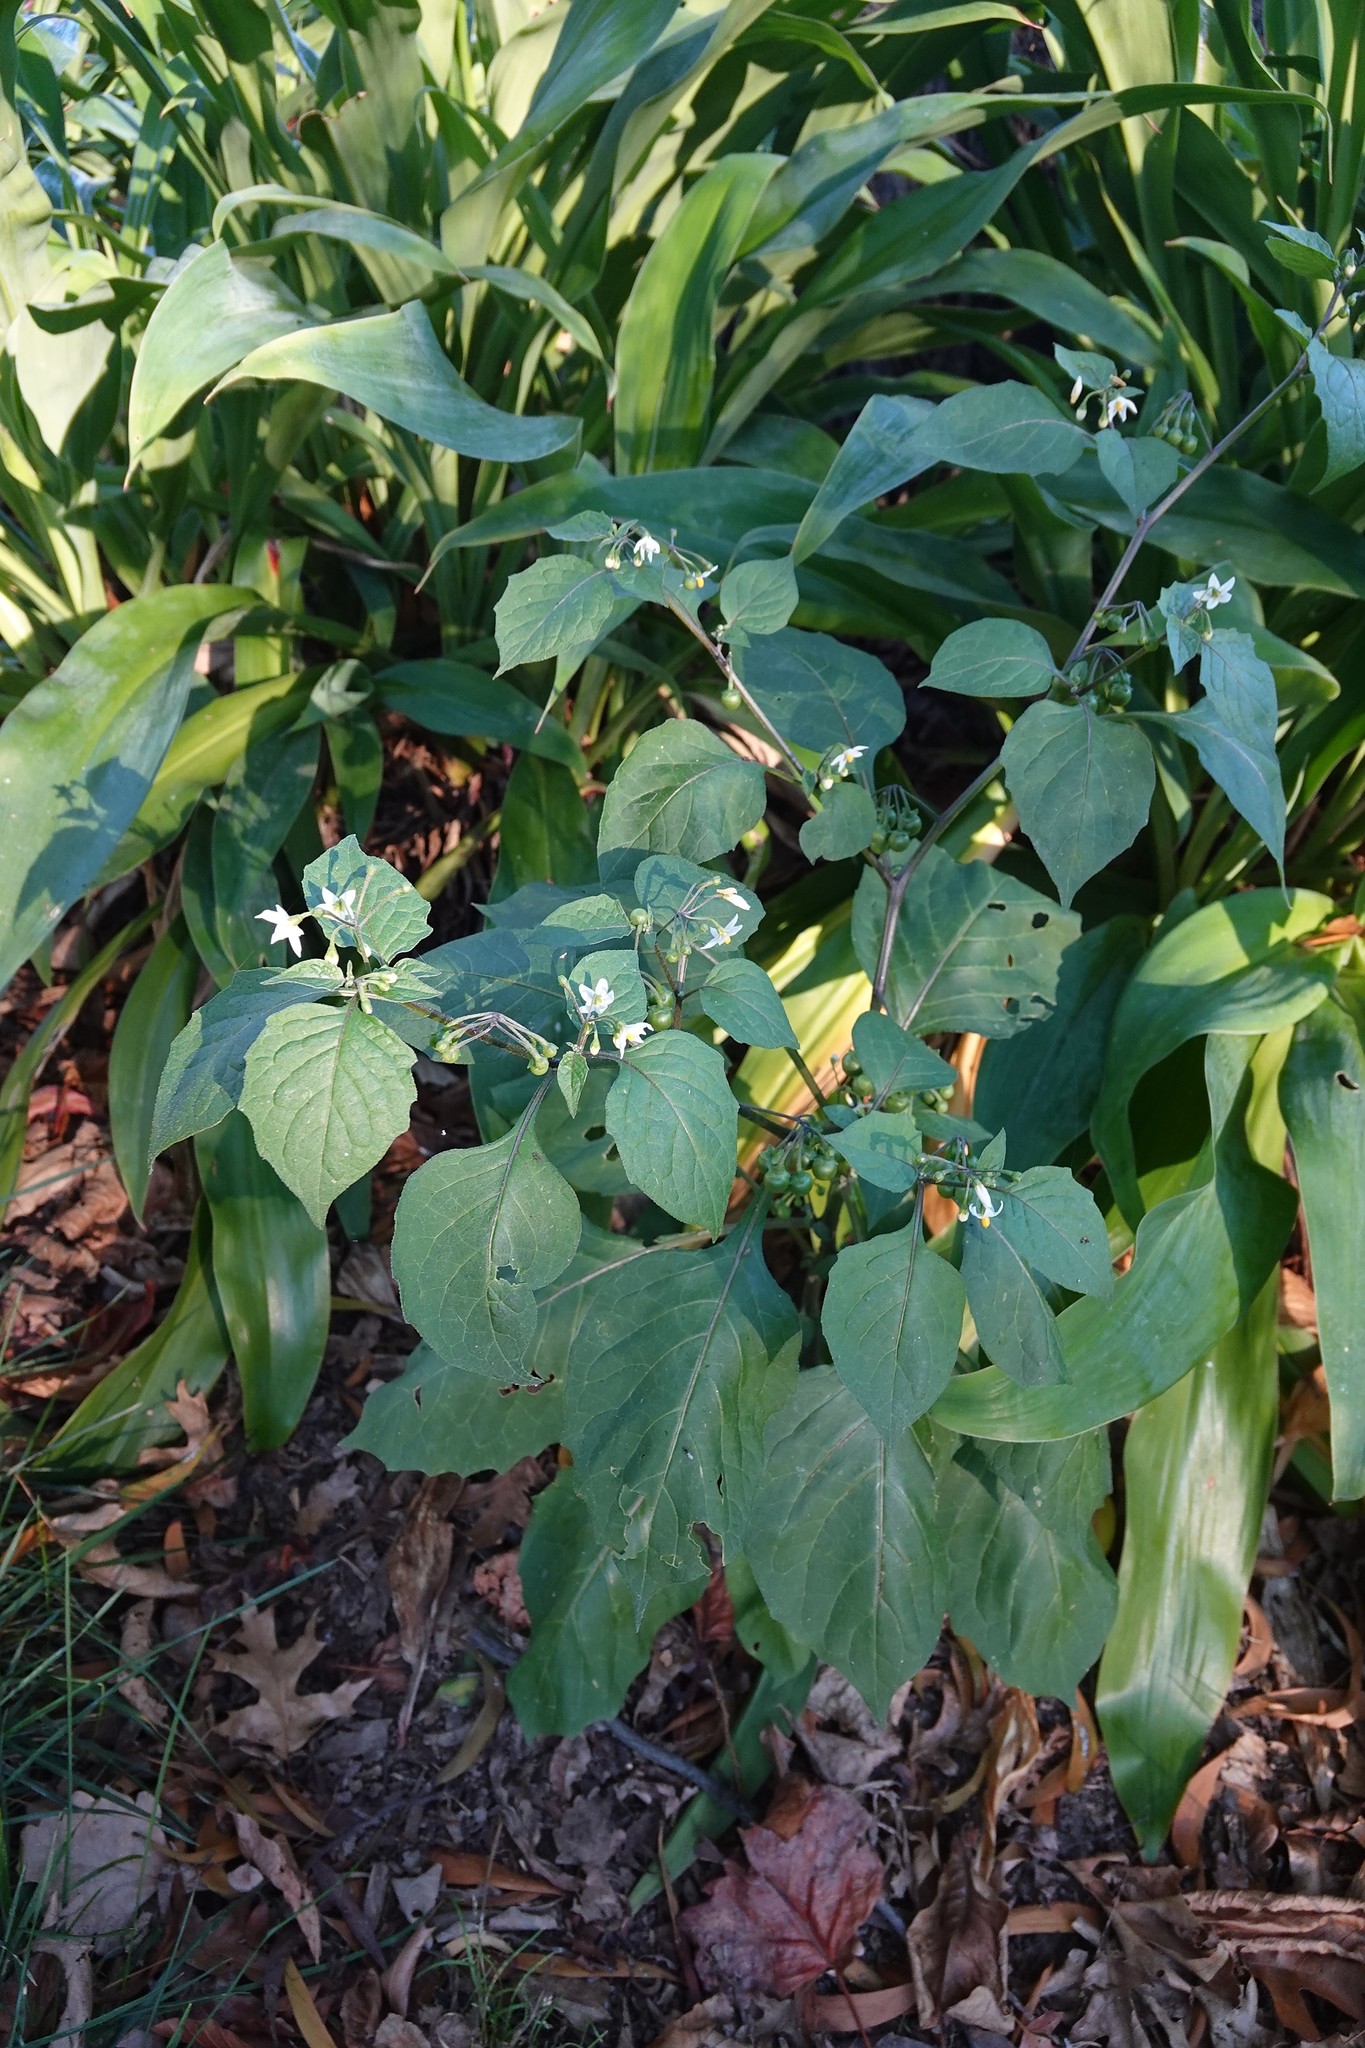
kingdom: Plantae
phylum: Tracheophyta
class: Magnoliopsida
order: Solanales
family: Solanaceae
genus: Solanum
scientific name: Solanum nigrum
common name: Black nightshade
